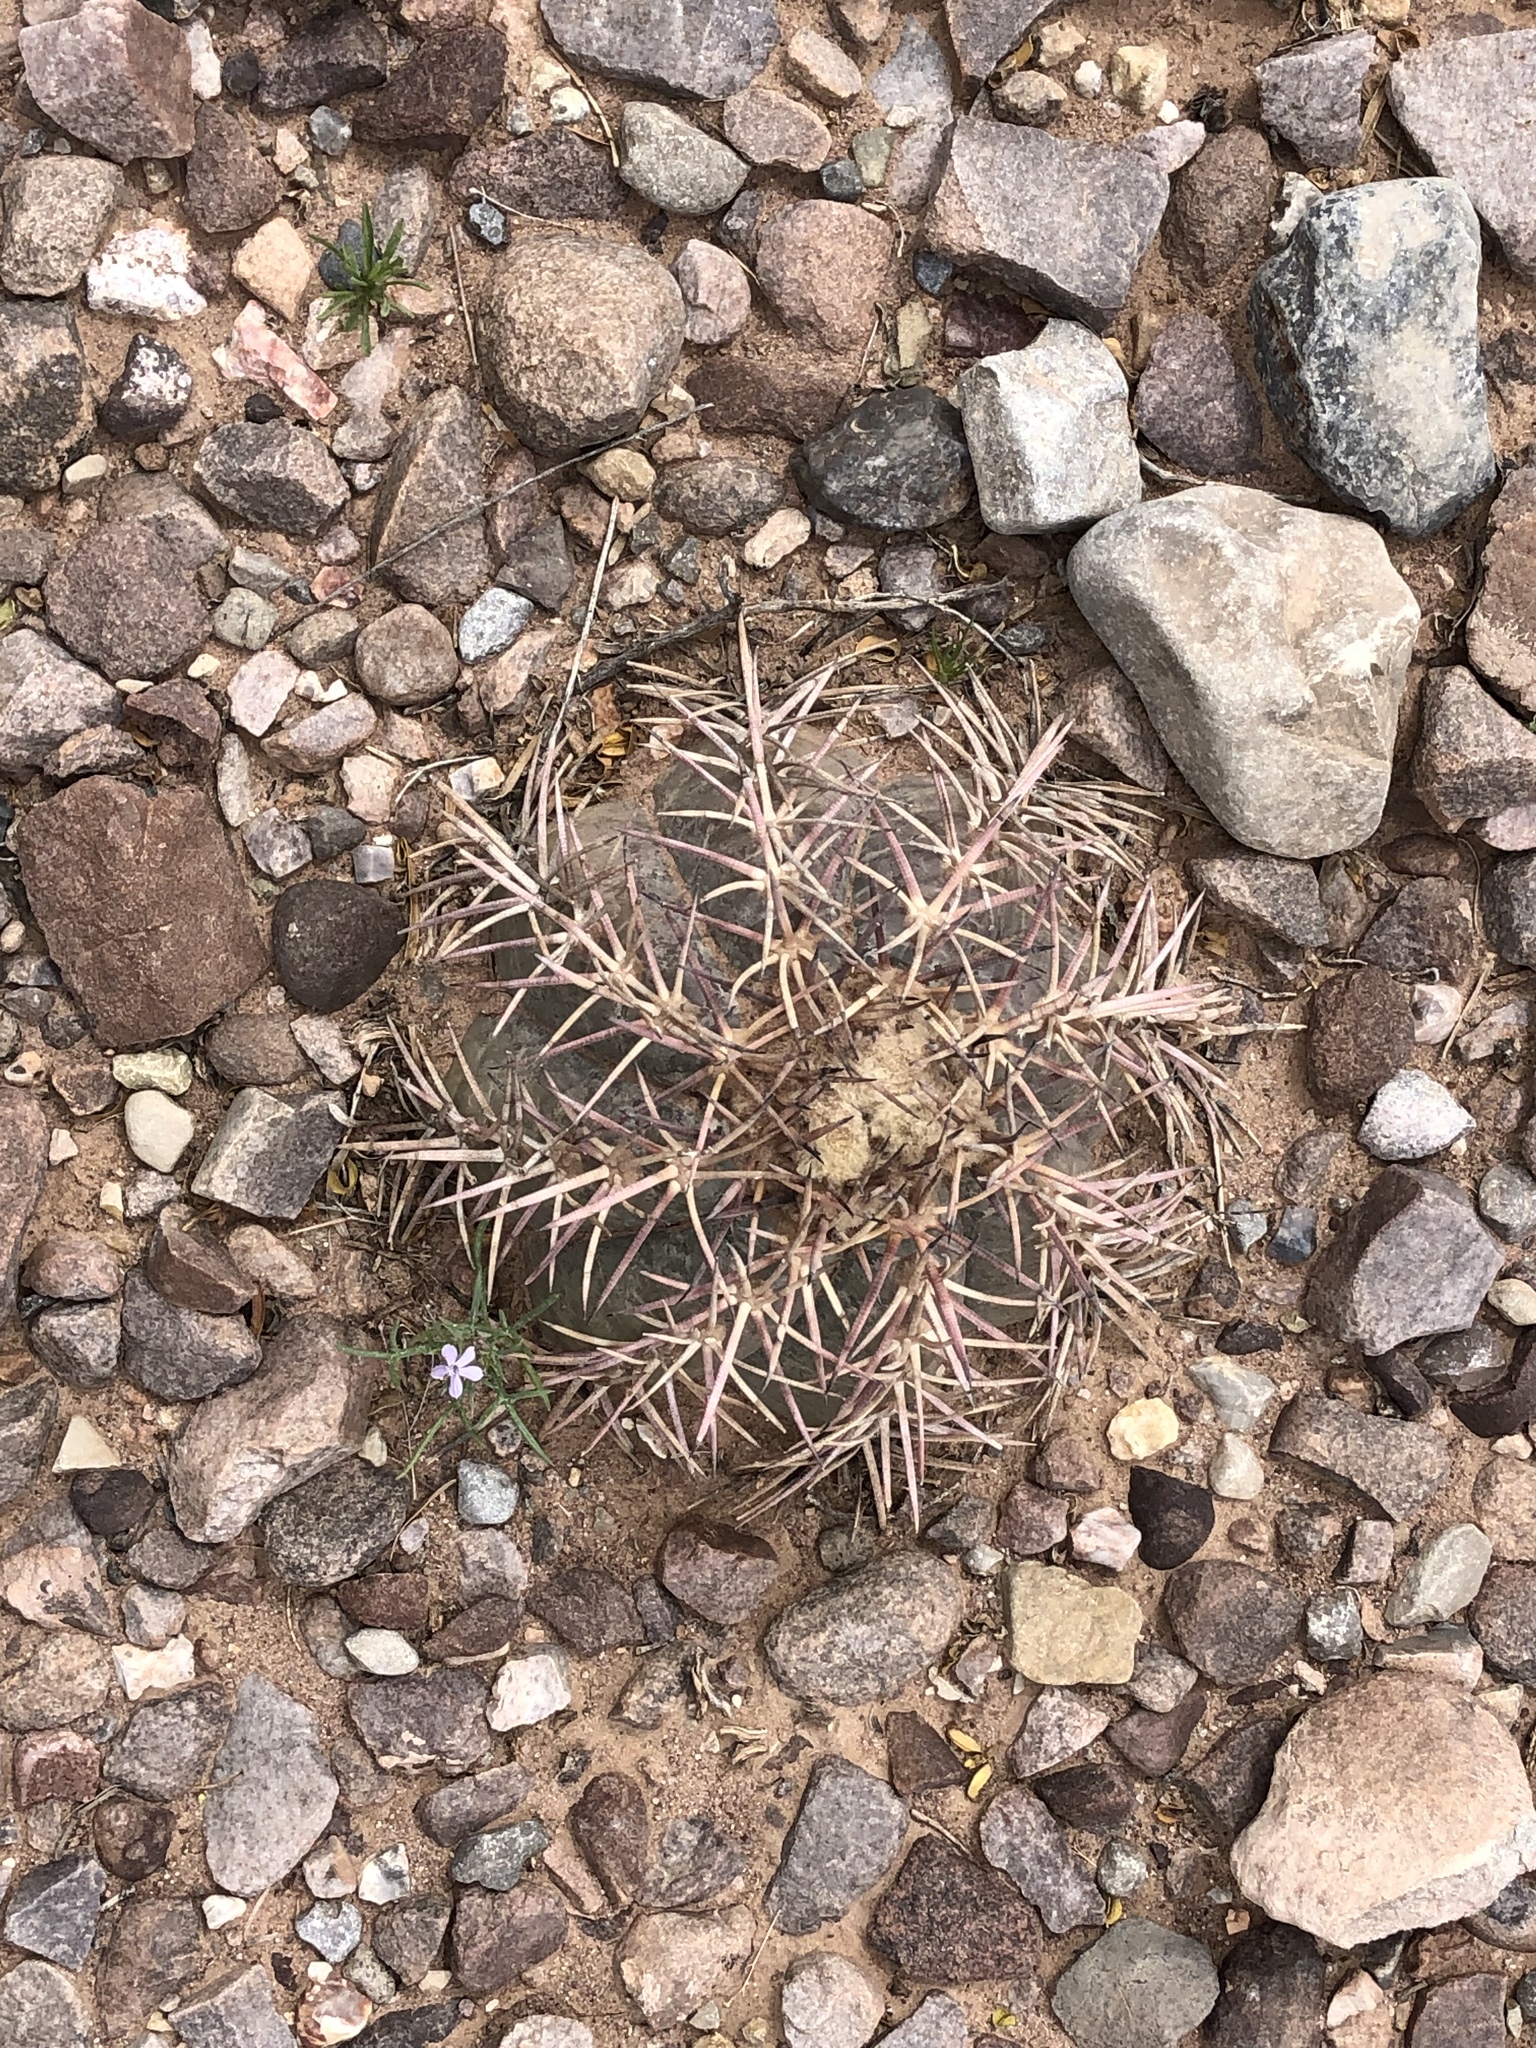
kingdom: Plantae
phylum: Tracheophyta
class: Magnoliopsida
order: Caryophyllales
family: Cactaceae
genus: Echinocactus
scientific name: Echinocactus horizonthalonius
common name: Devilshead
